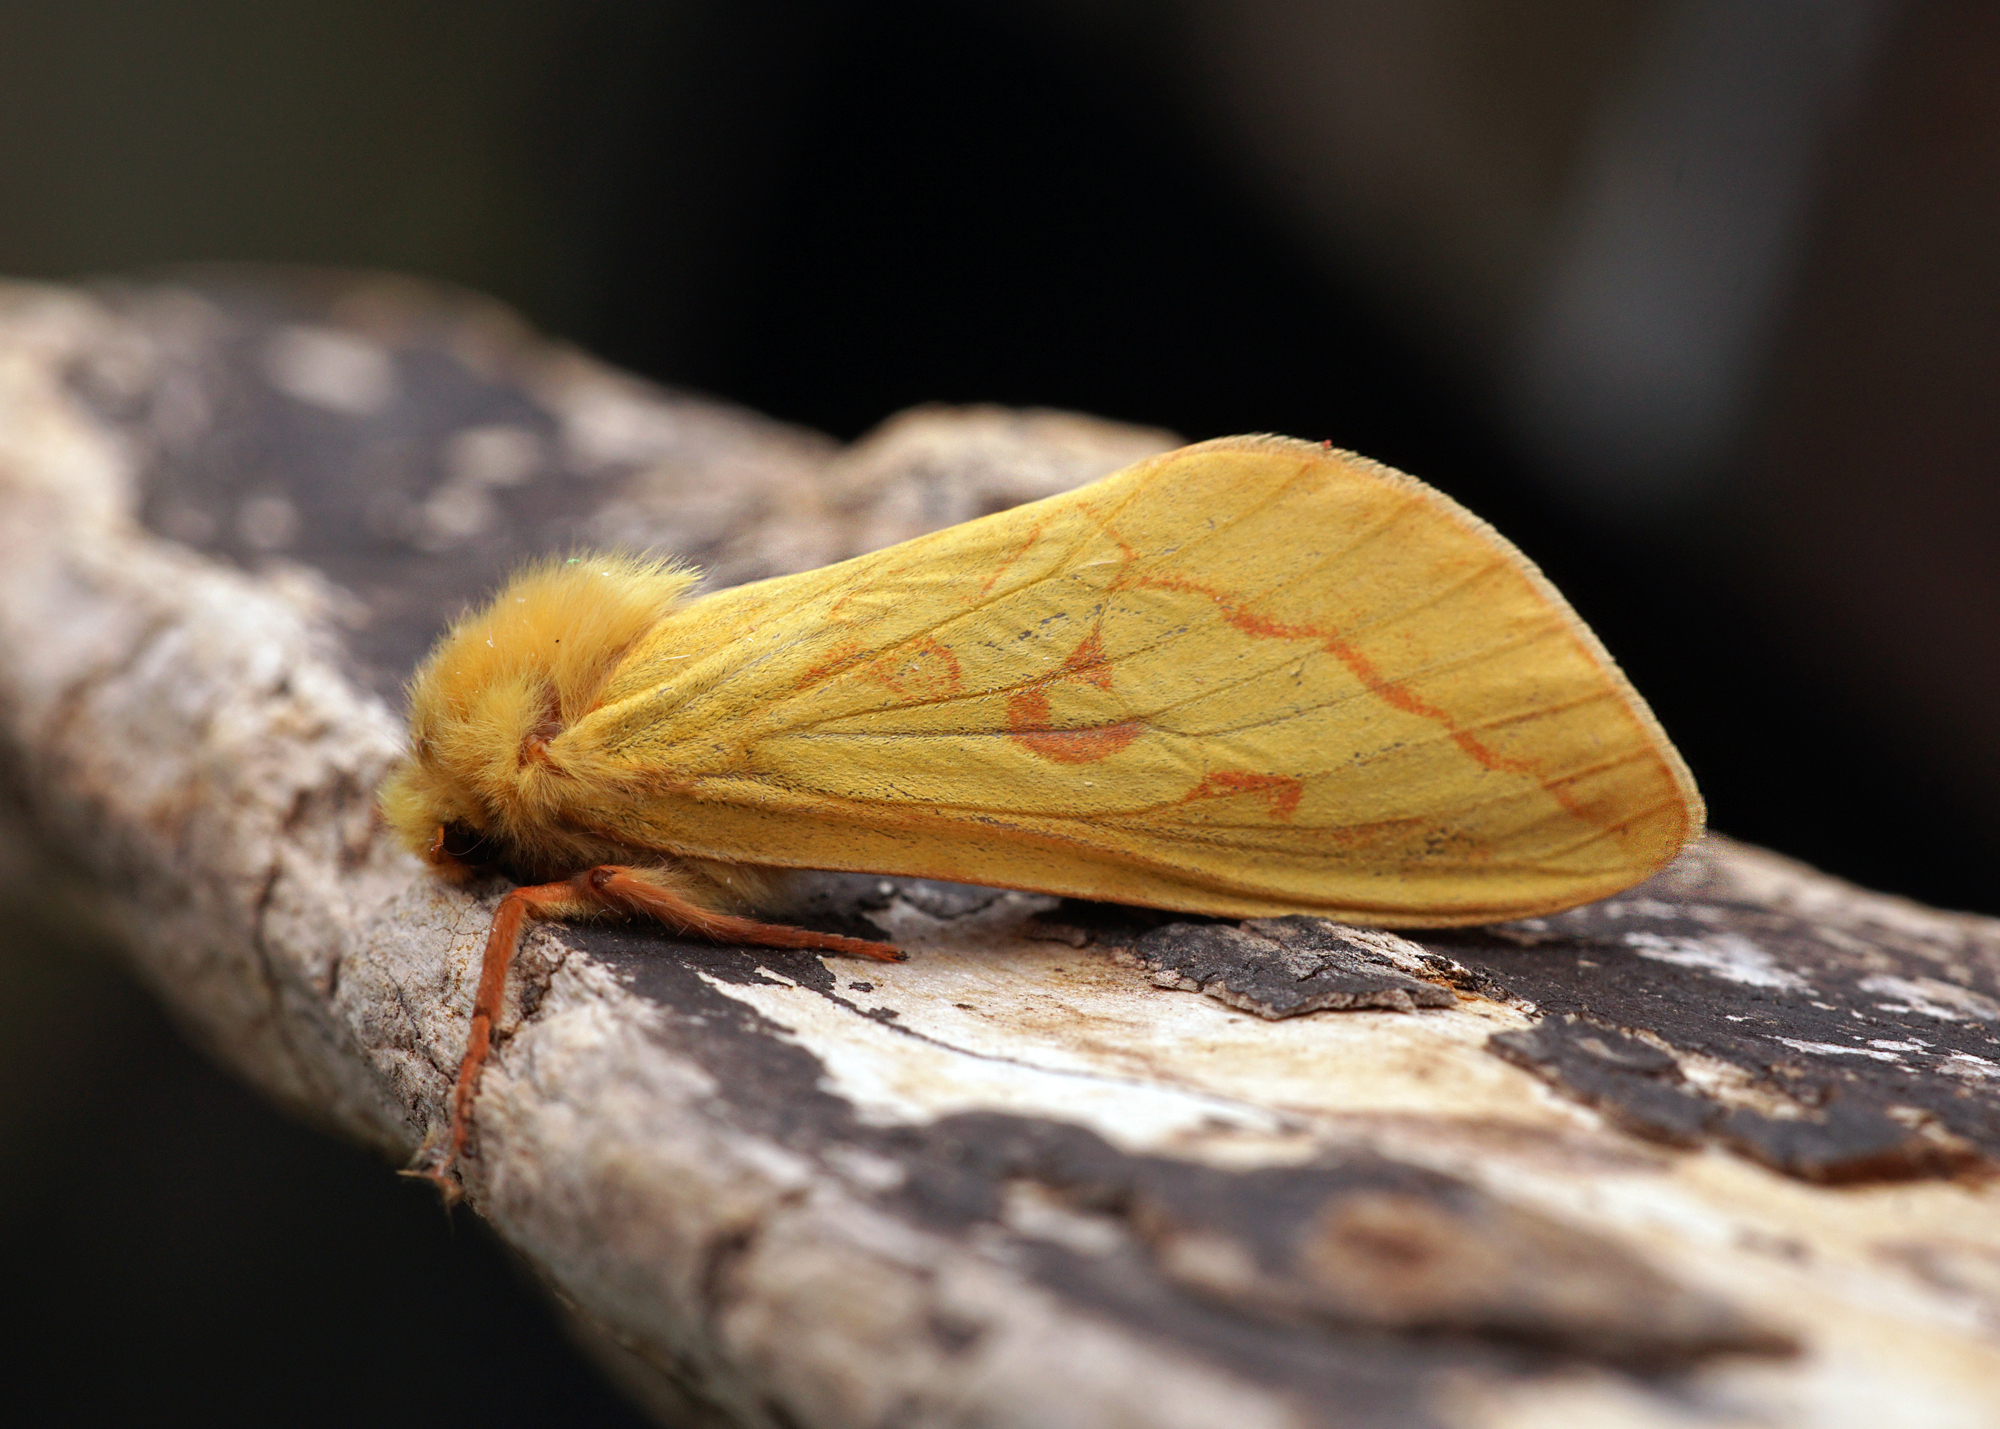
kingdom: Animalia
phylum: Arthropoda
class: Insecta
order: Lepidoptera
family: Hepialidae
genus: Hepialus
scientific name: Hepialus humuli
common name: Ghost moth
